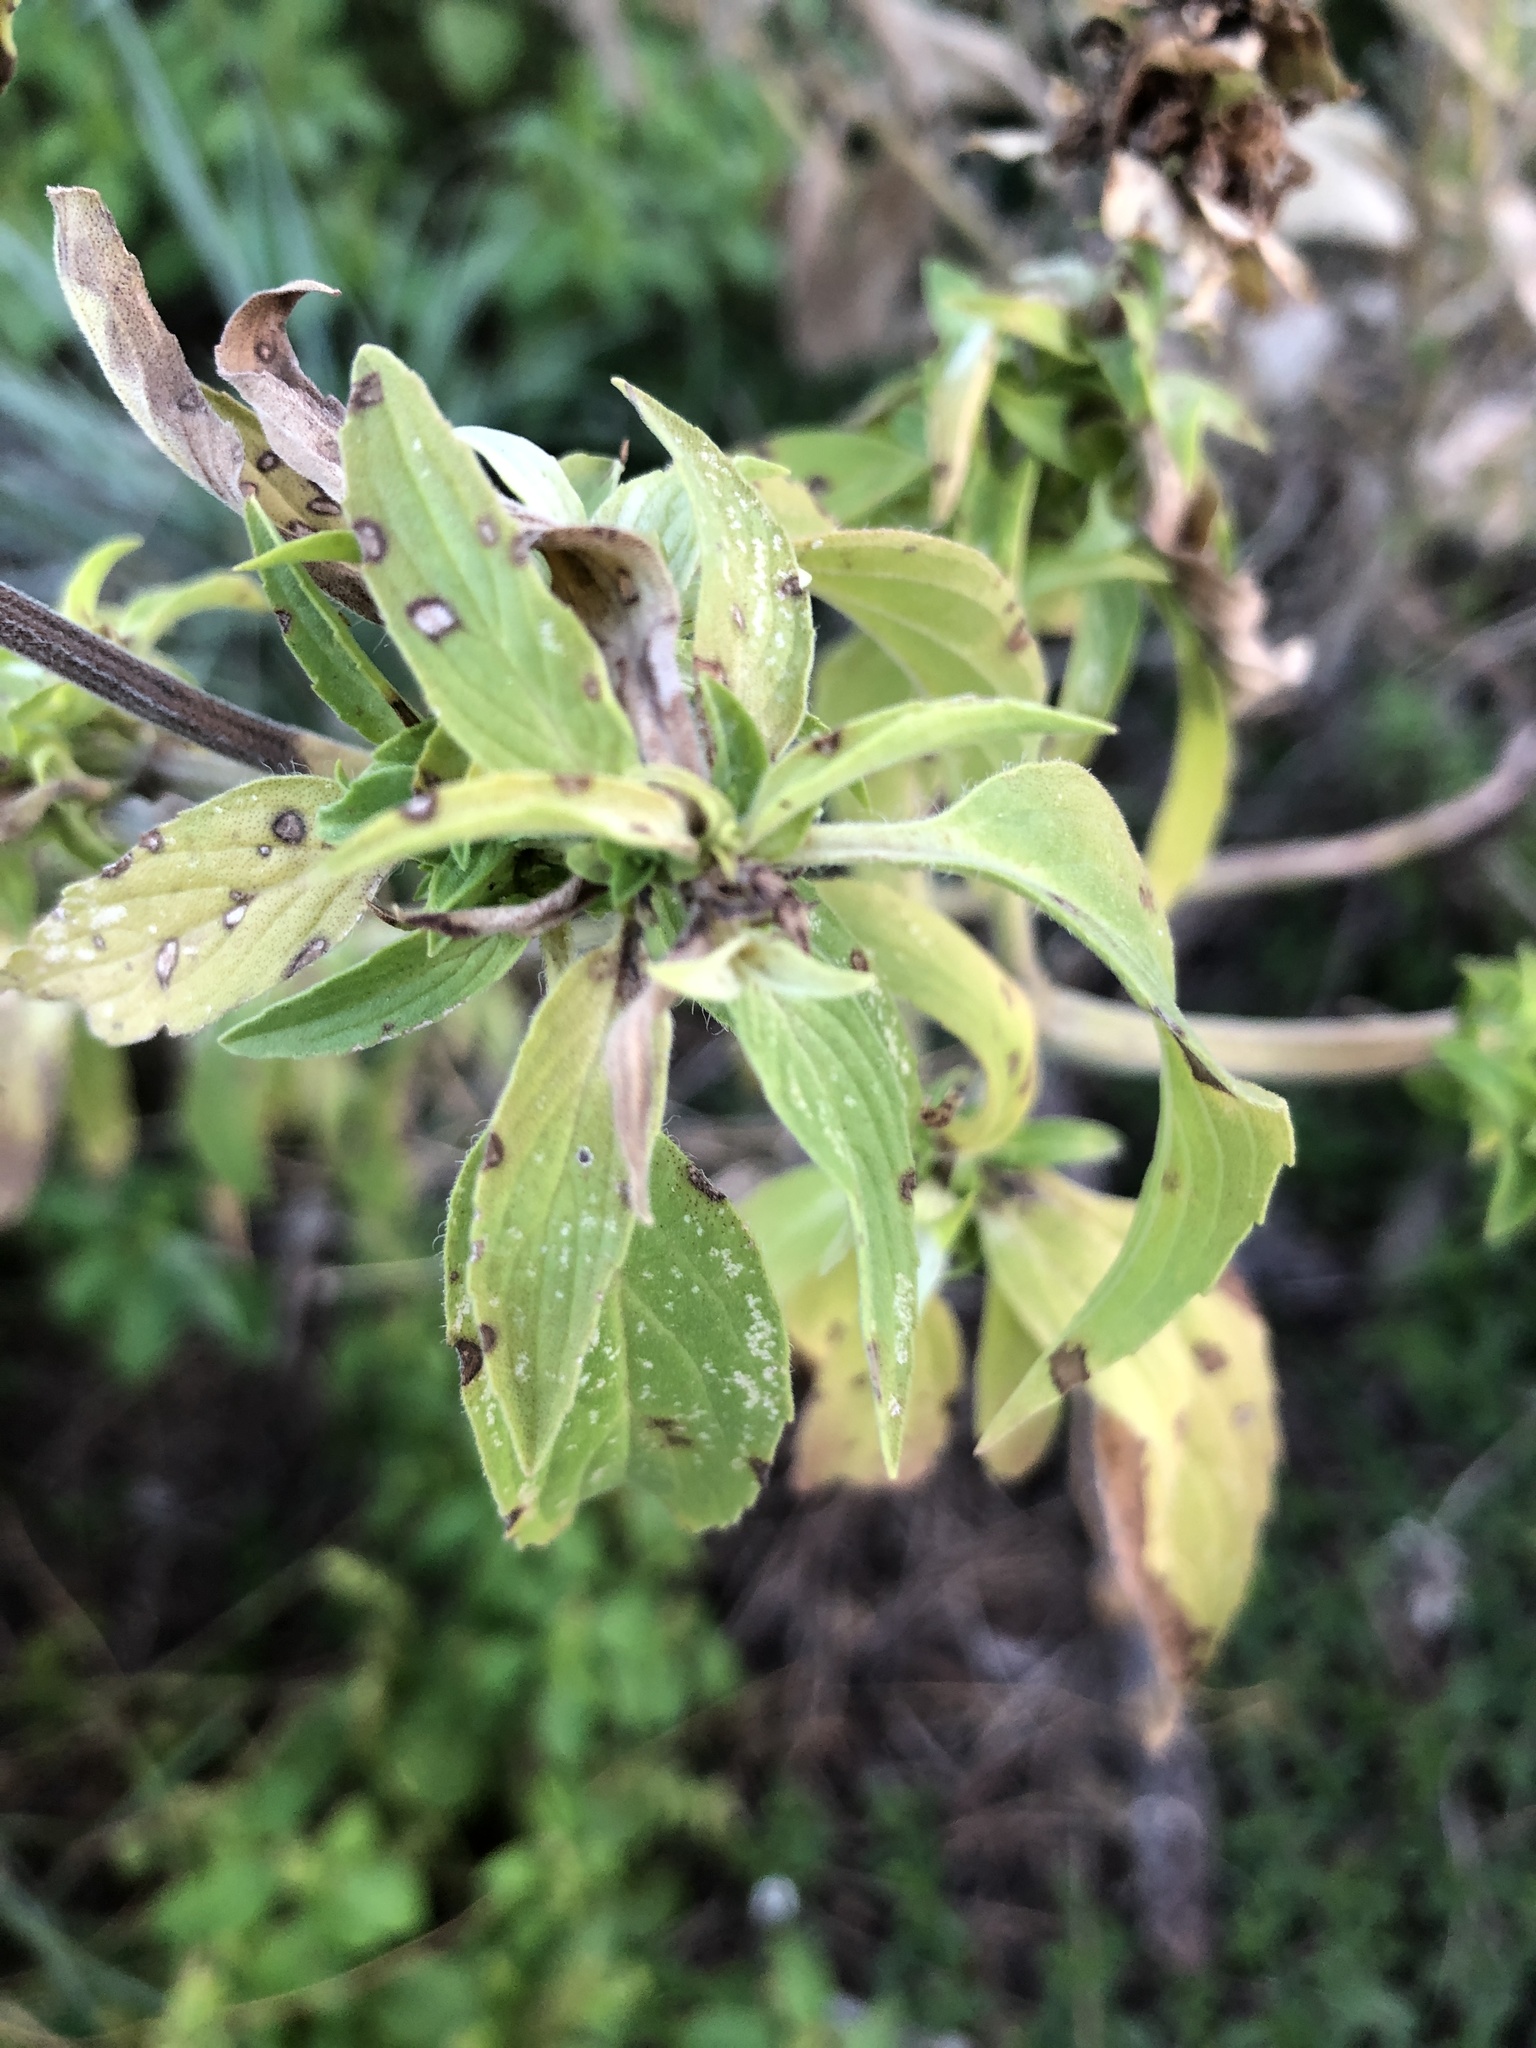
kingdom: Plantae
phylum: Tracheophyta
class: Magnoliopsida
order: Lamiales
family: Lamiaceae
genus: Monarda
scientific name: Monarda punctata
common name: Dotted monarda
